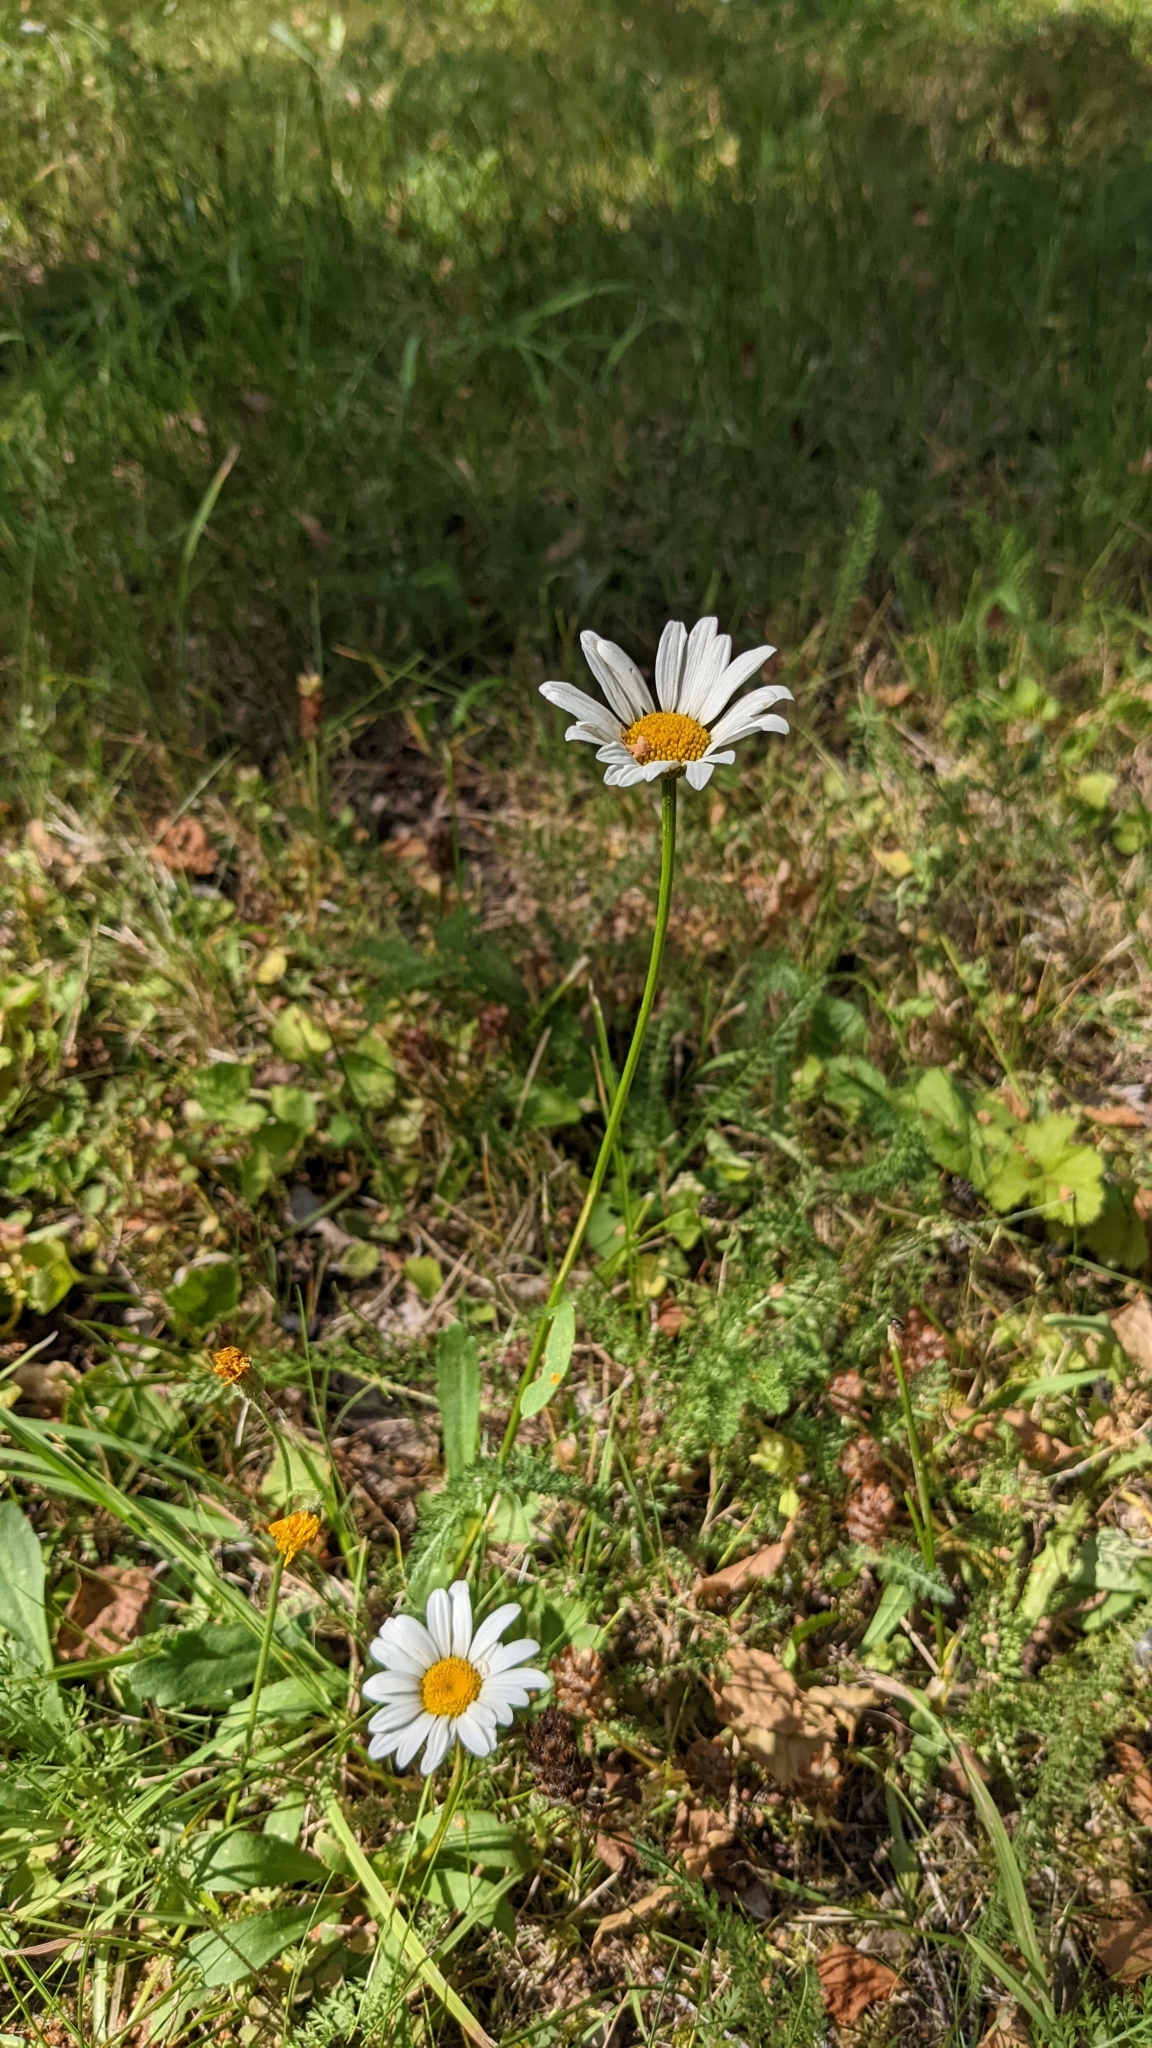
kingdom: Plantae
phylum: Tracheophyta
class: Magnoliopsida
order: Asterales
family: Asteraceae
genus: Leucanthemum
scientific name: Leucanthemum vulgare
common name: Oxeye daisy
